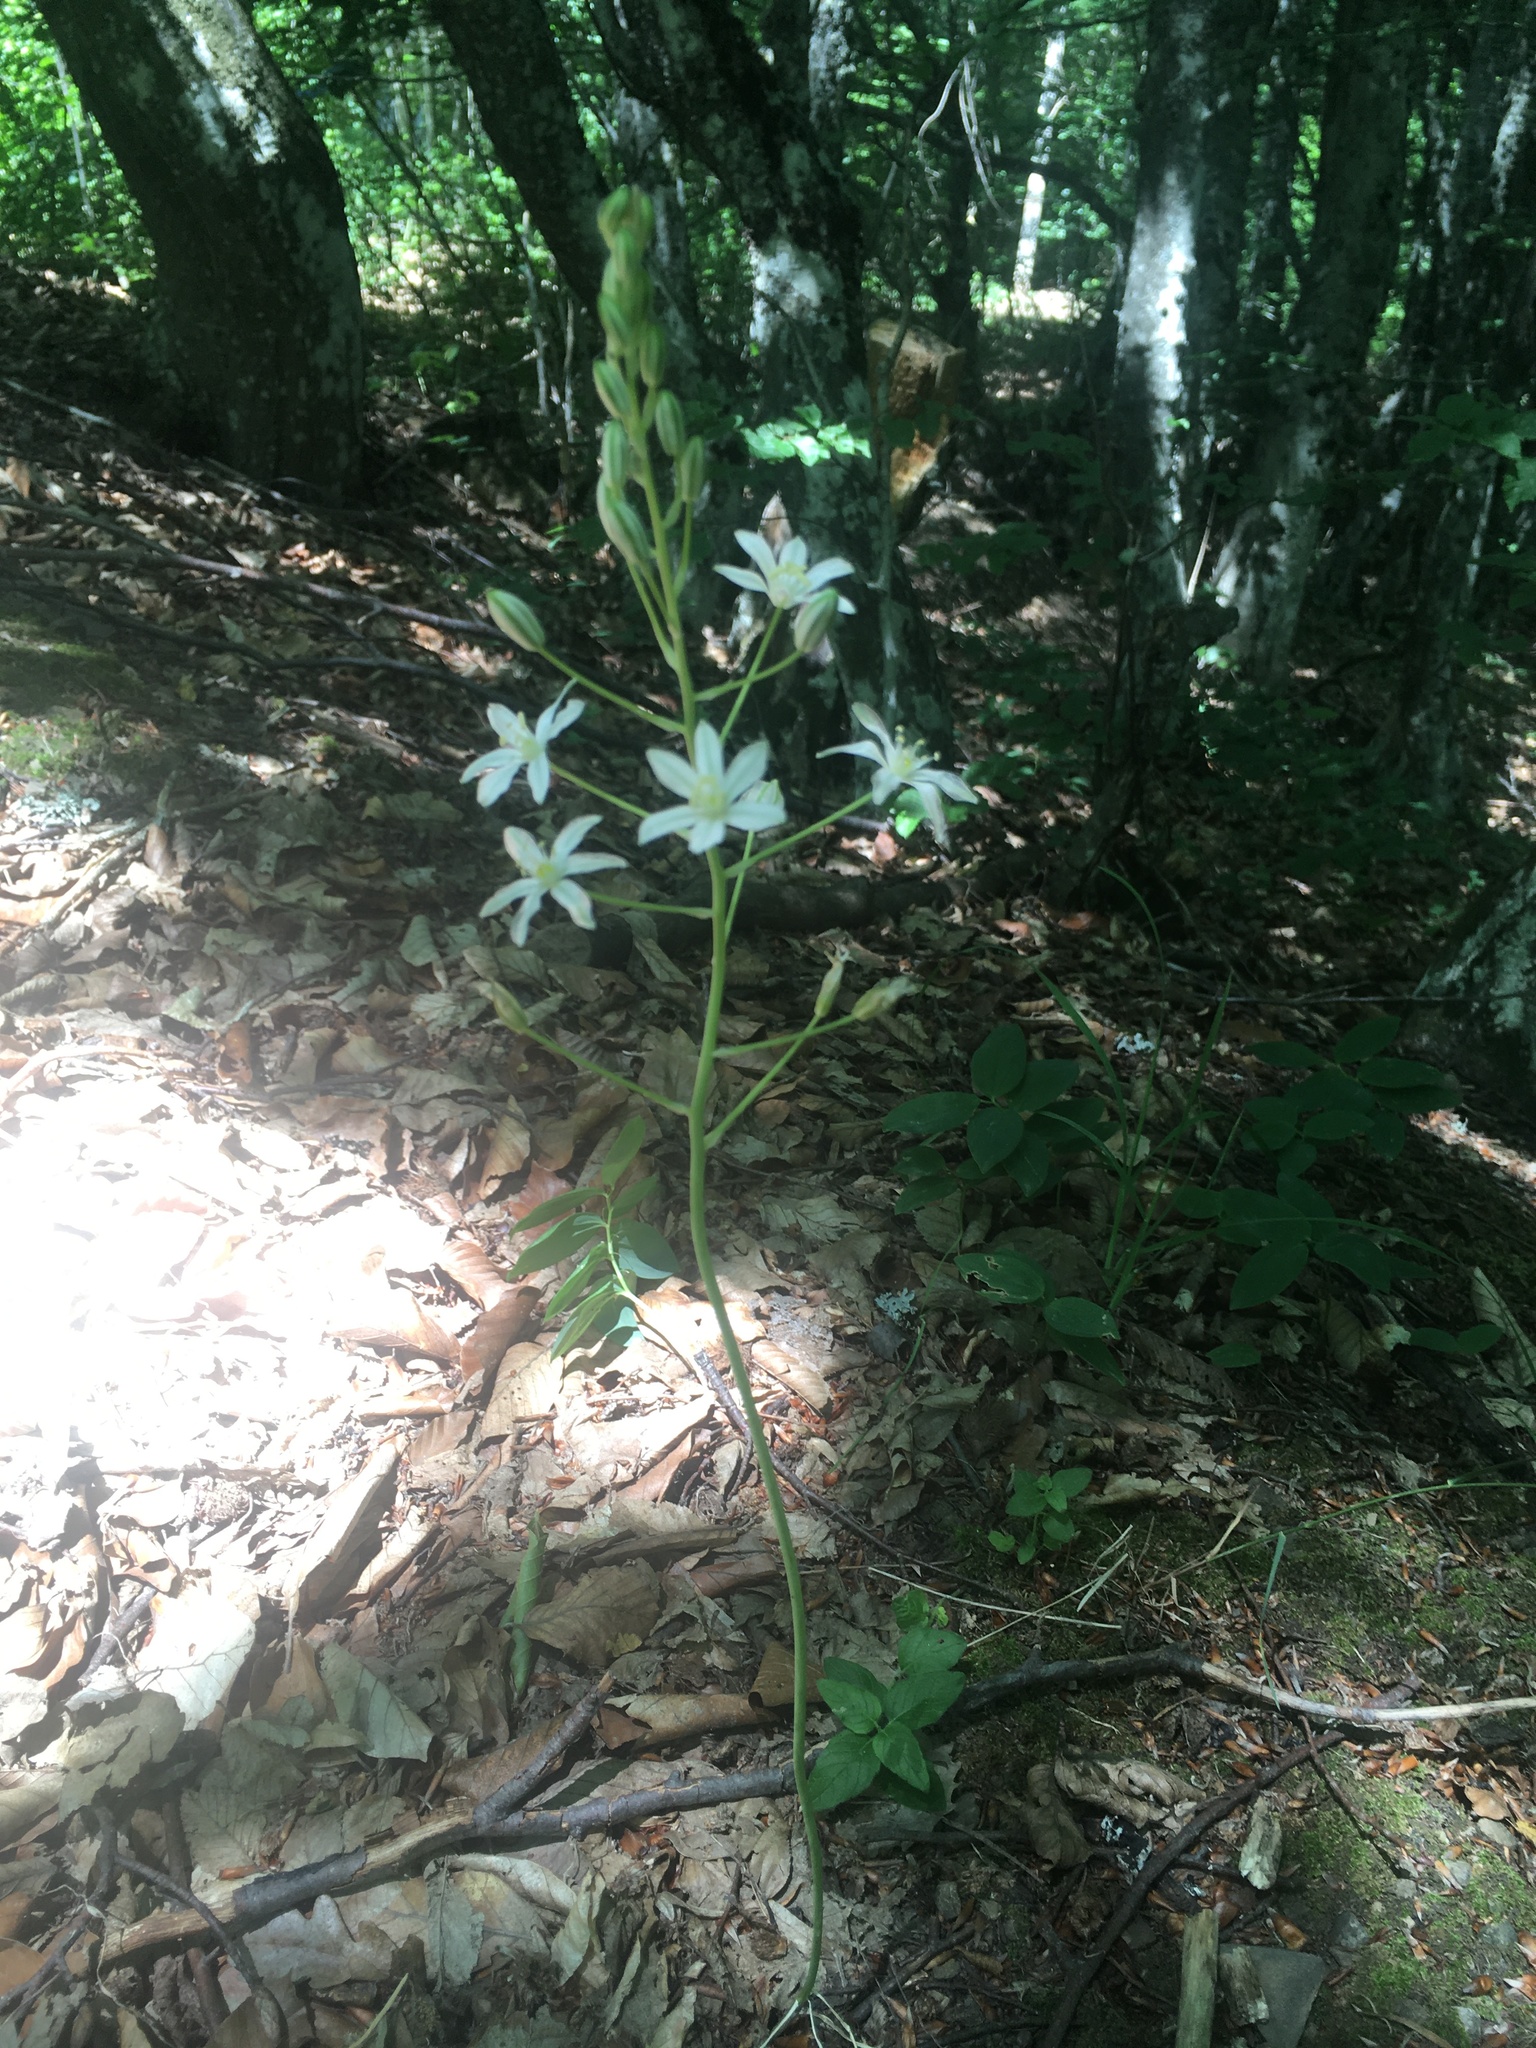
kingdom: Plantae
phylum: Tracheophyta
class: Liliopsida
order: Asparagales
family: Asparagaceae
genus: Ornithogalum
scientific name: Ornithogalum ponticum
